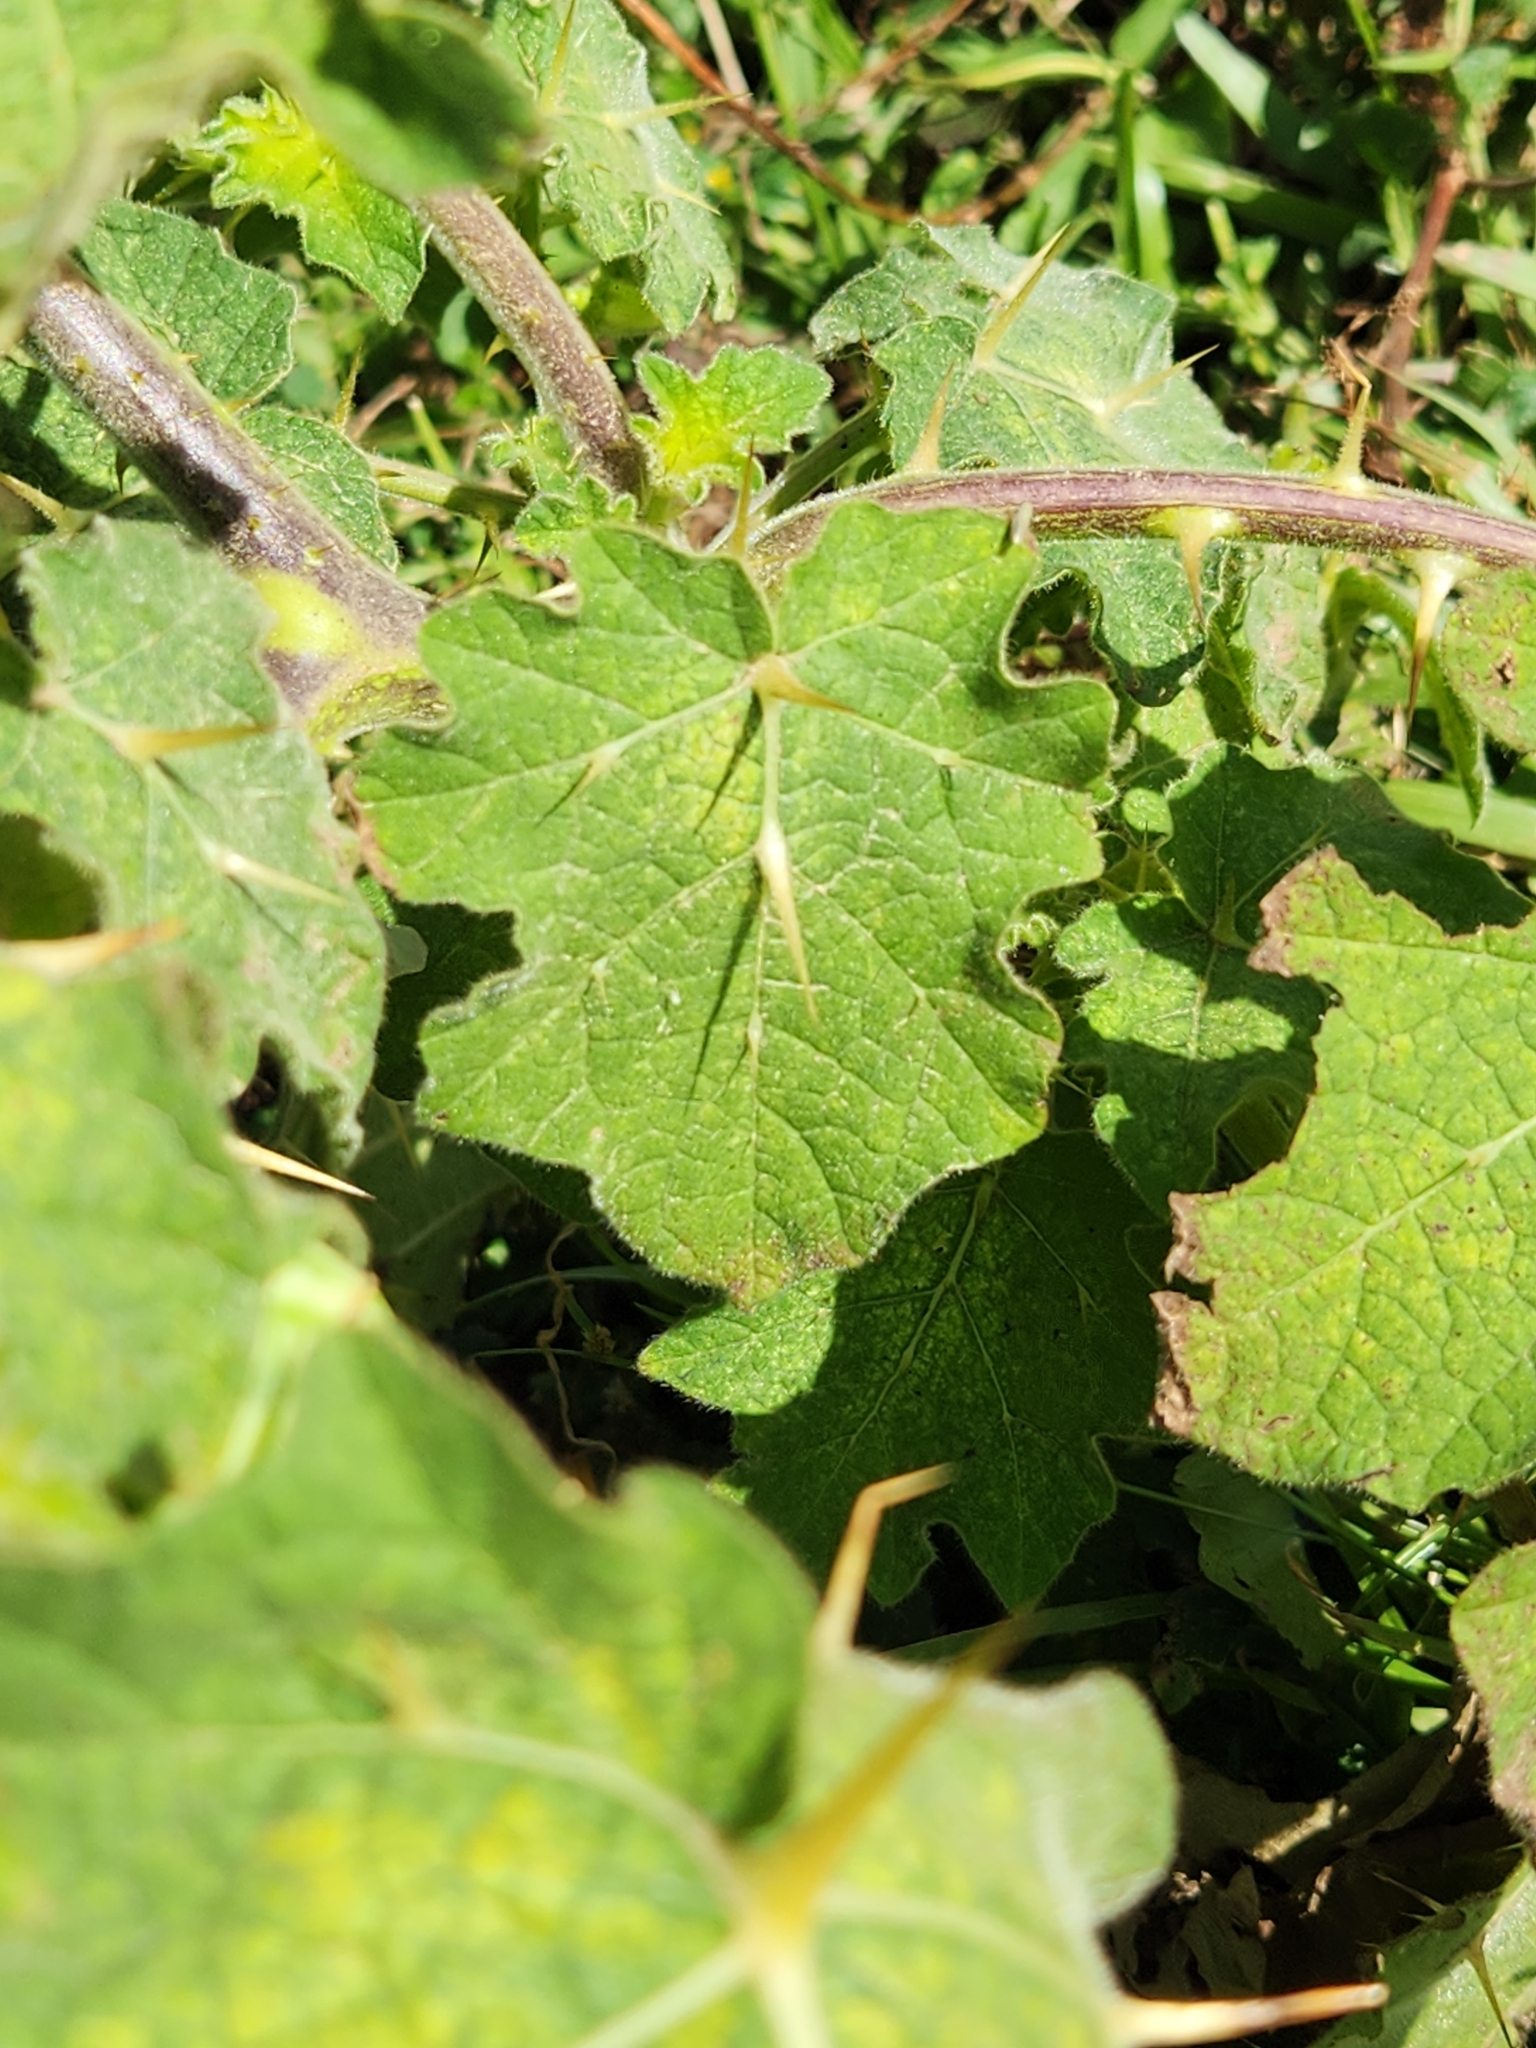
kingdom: Plantae
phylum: Tracheophyta
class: Magnoliopsida
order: Solanales
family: Solanaceae
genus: Solanum
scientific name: Solanum viarum
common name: Tropical soda apple
